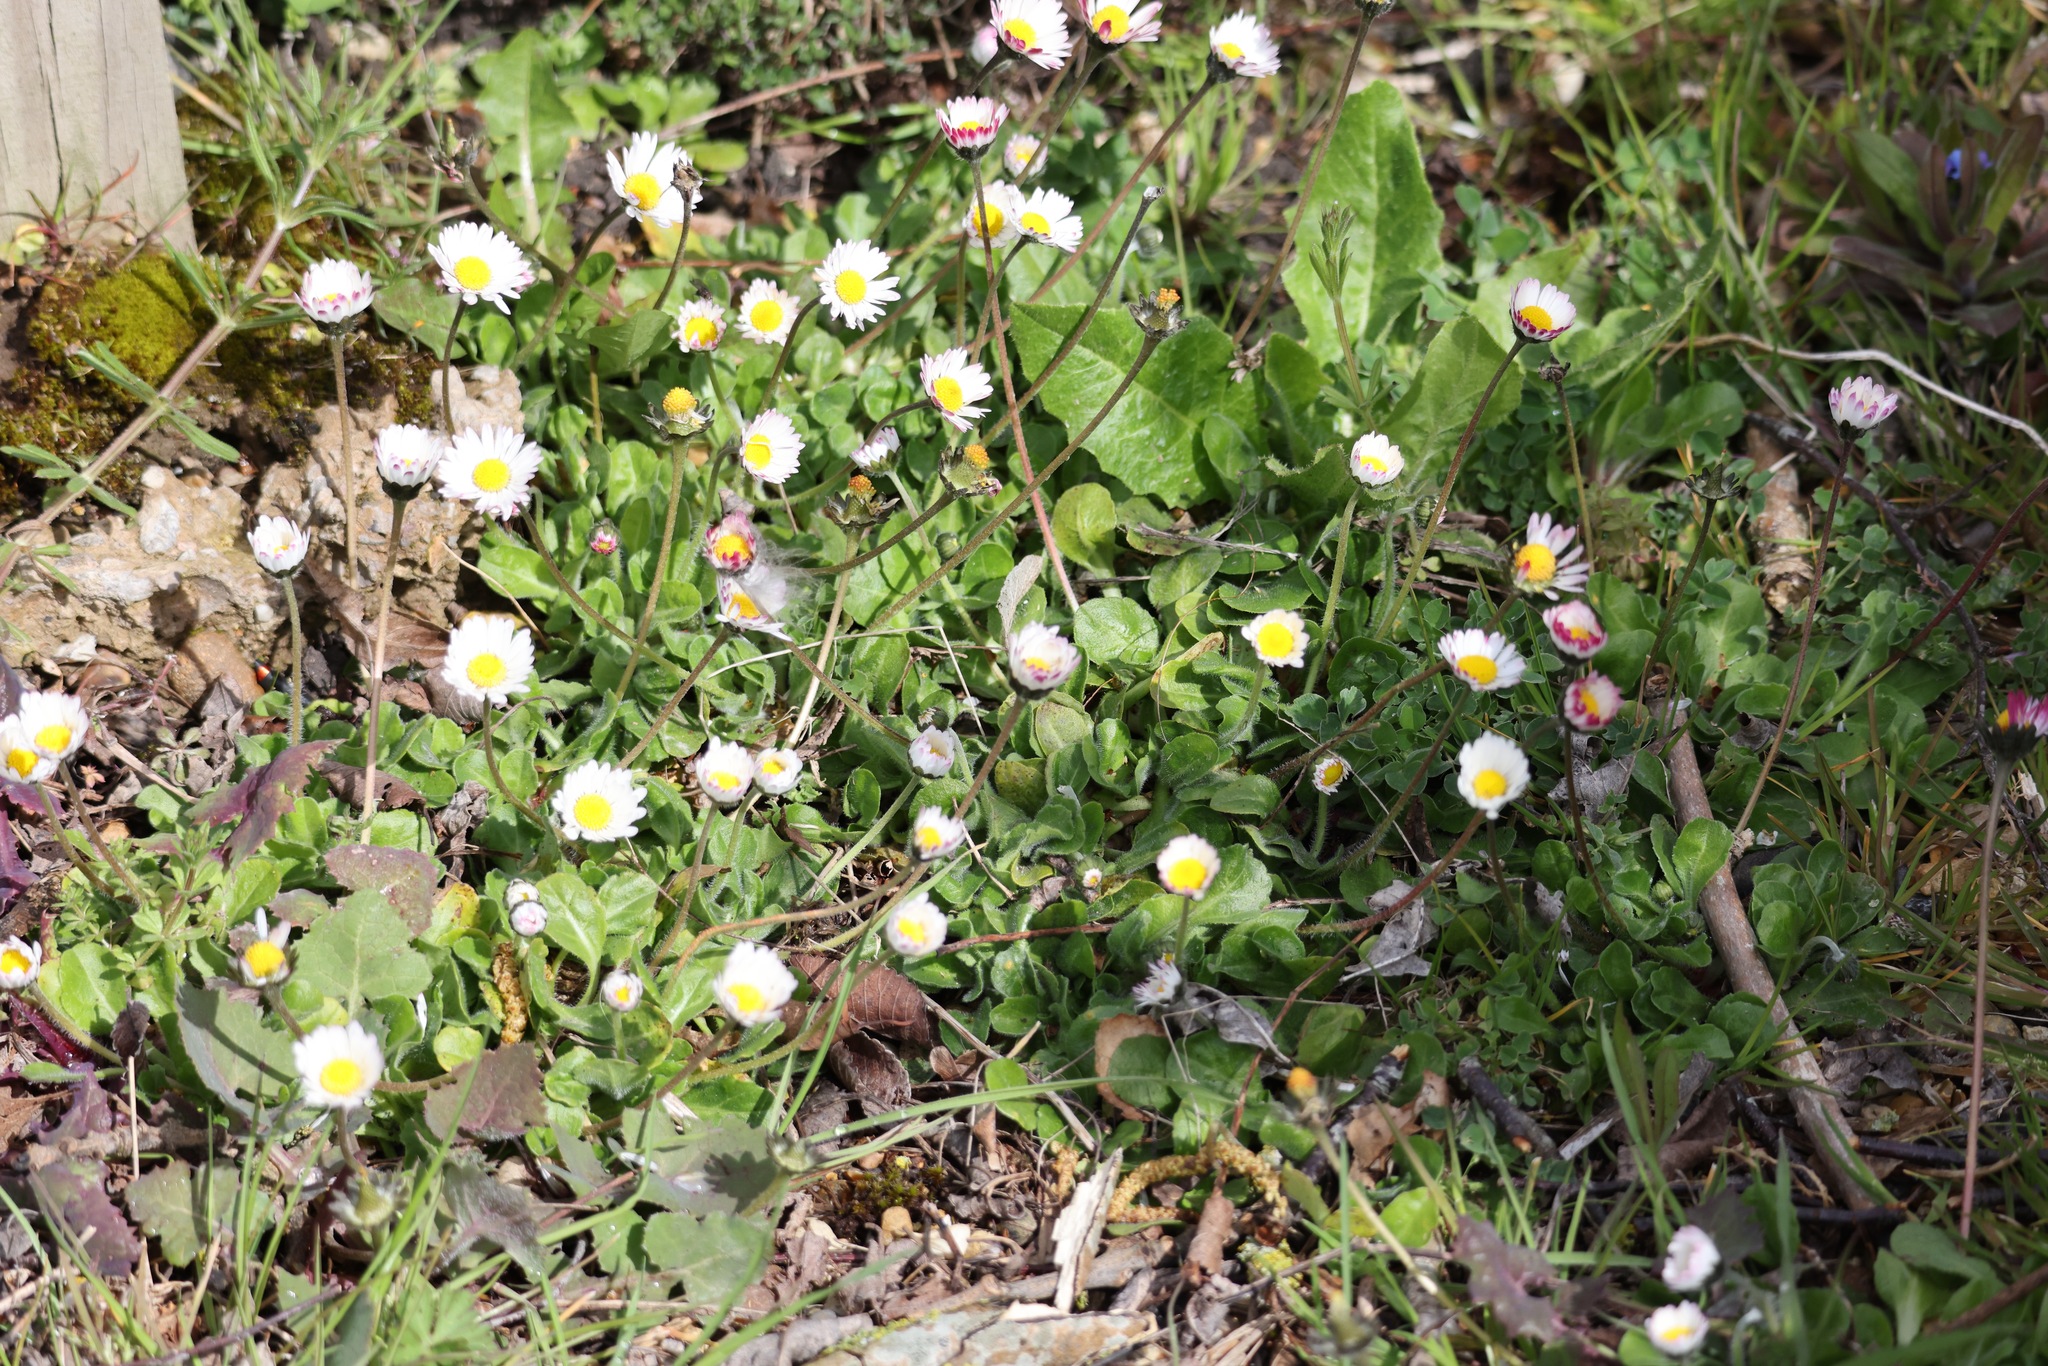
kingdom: Plantae
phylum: Tracheophyta
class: Magnoliopsida
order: Asterales
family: Asteraceae
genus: Bellis
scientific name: Bellis perennis
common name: Lawndaisy
